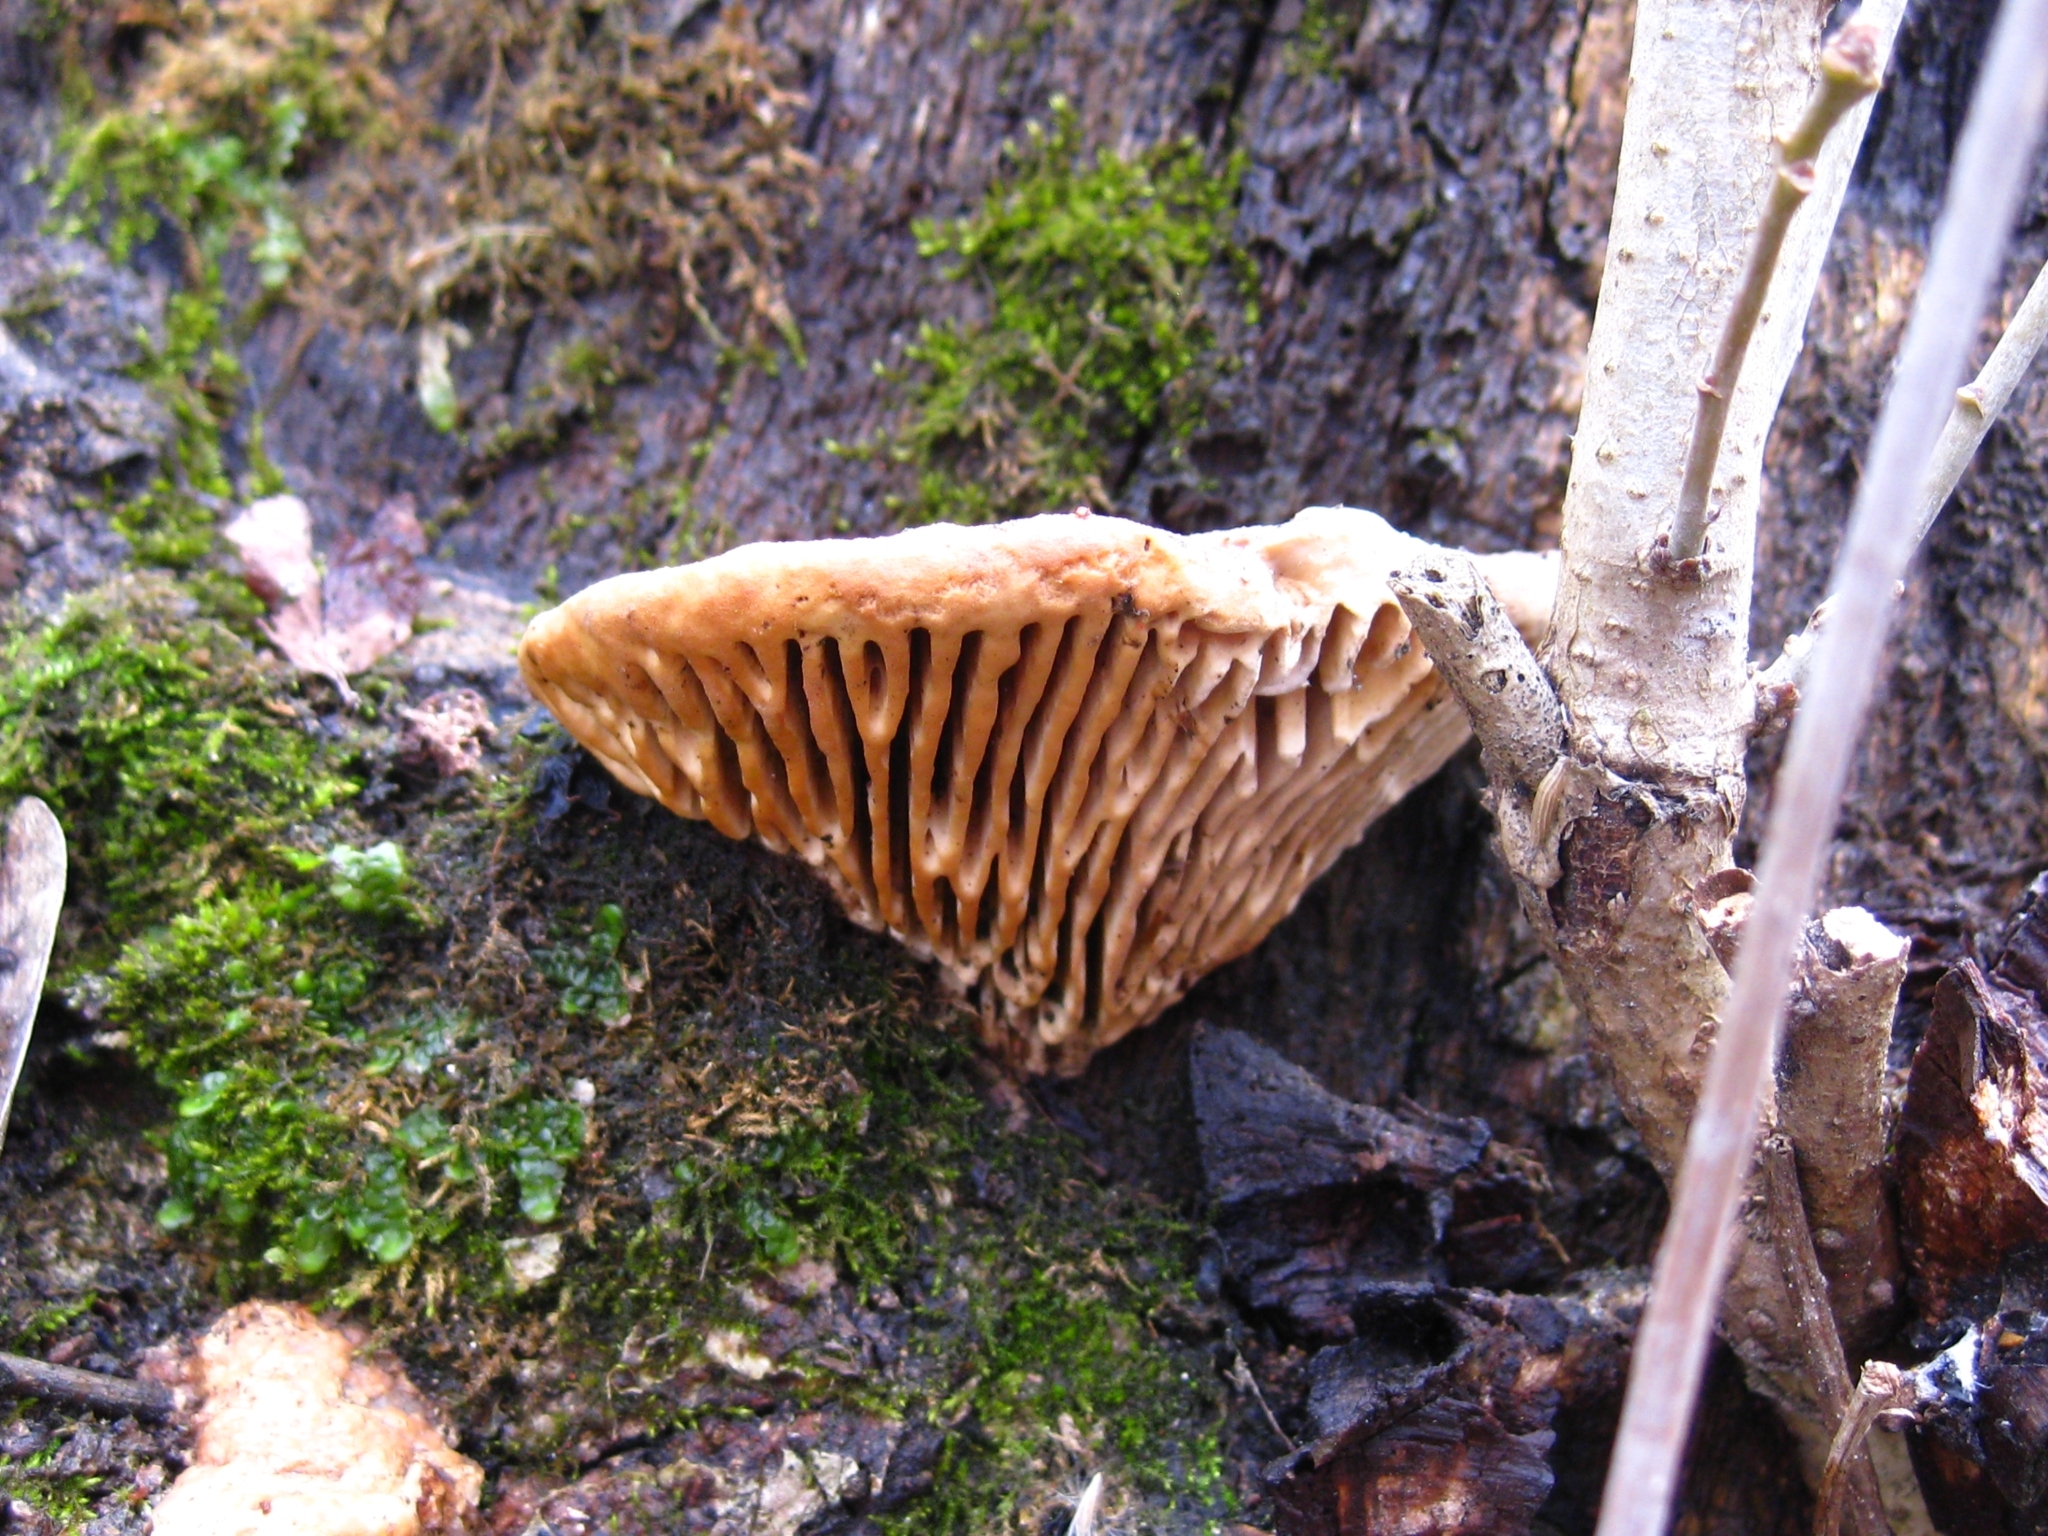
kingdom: Fungi
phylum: Basidiomycota
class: Agaricomycetes
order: Polyporales
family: Fomitopsidaceae
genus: Fomitopsis
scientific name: Fomitopsis
